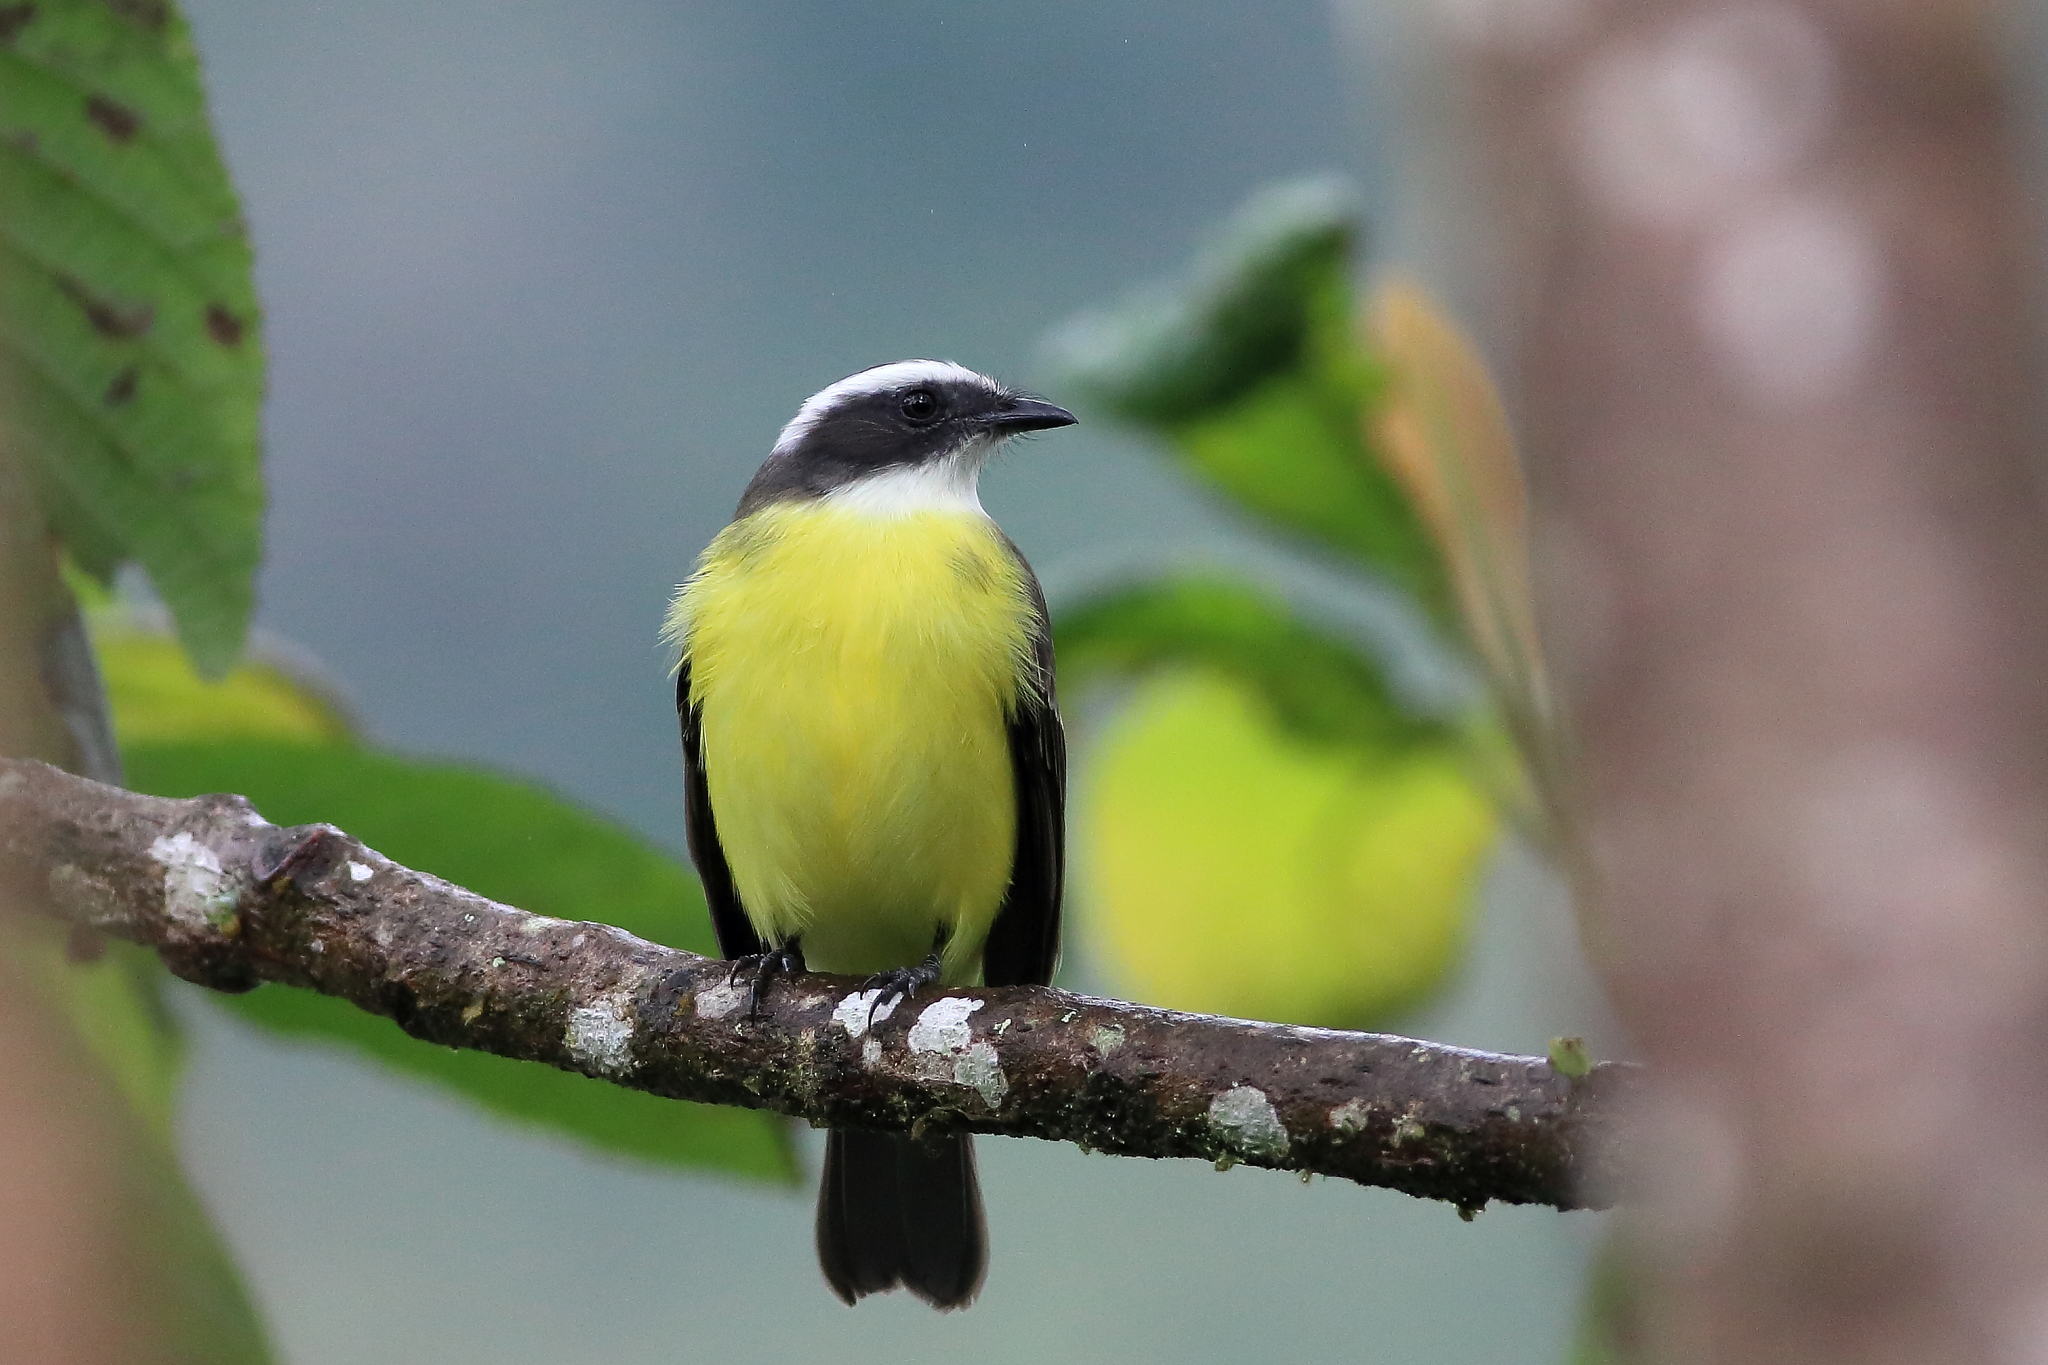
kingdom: Animalia
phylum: Chordata
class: Aves
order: Passeriformes
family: Tyrannidae
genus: Myiozetetes
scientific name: Myiozetetes similis
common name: Social flycatcher
